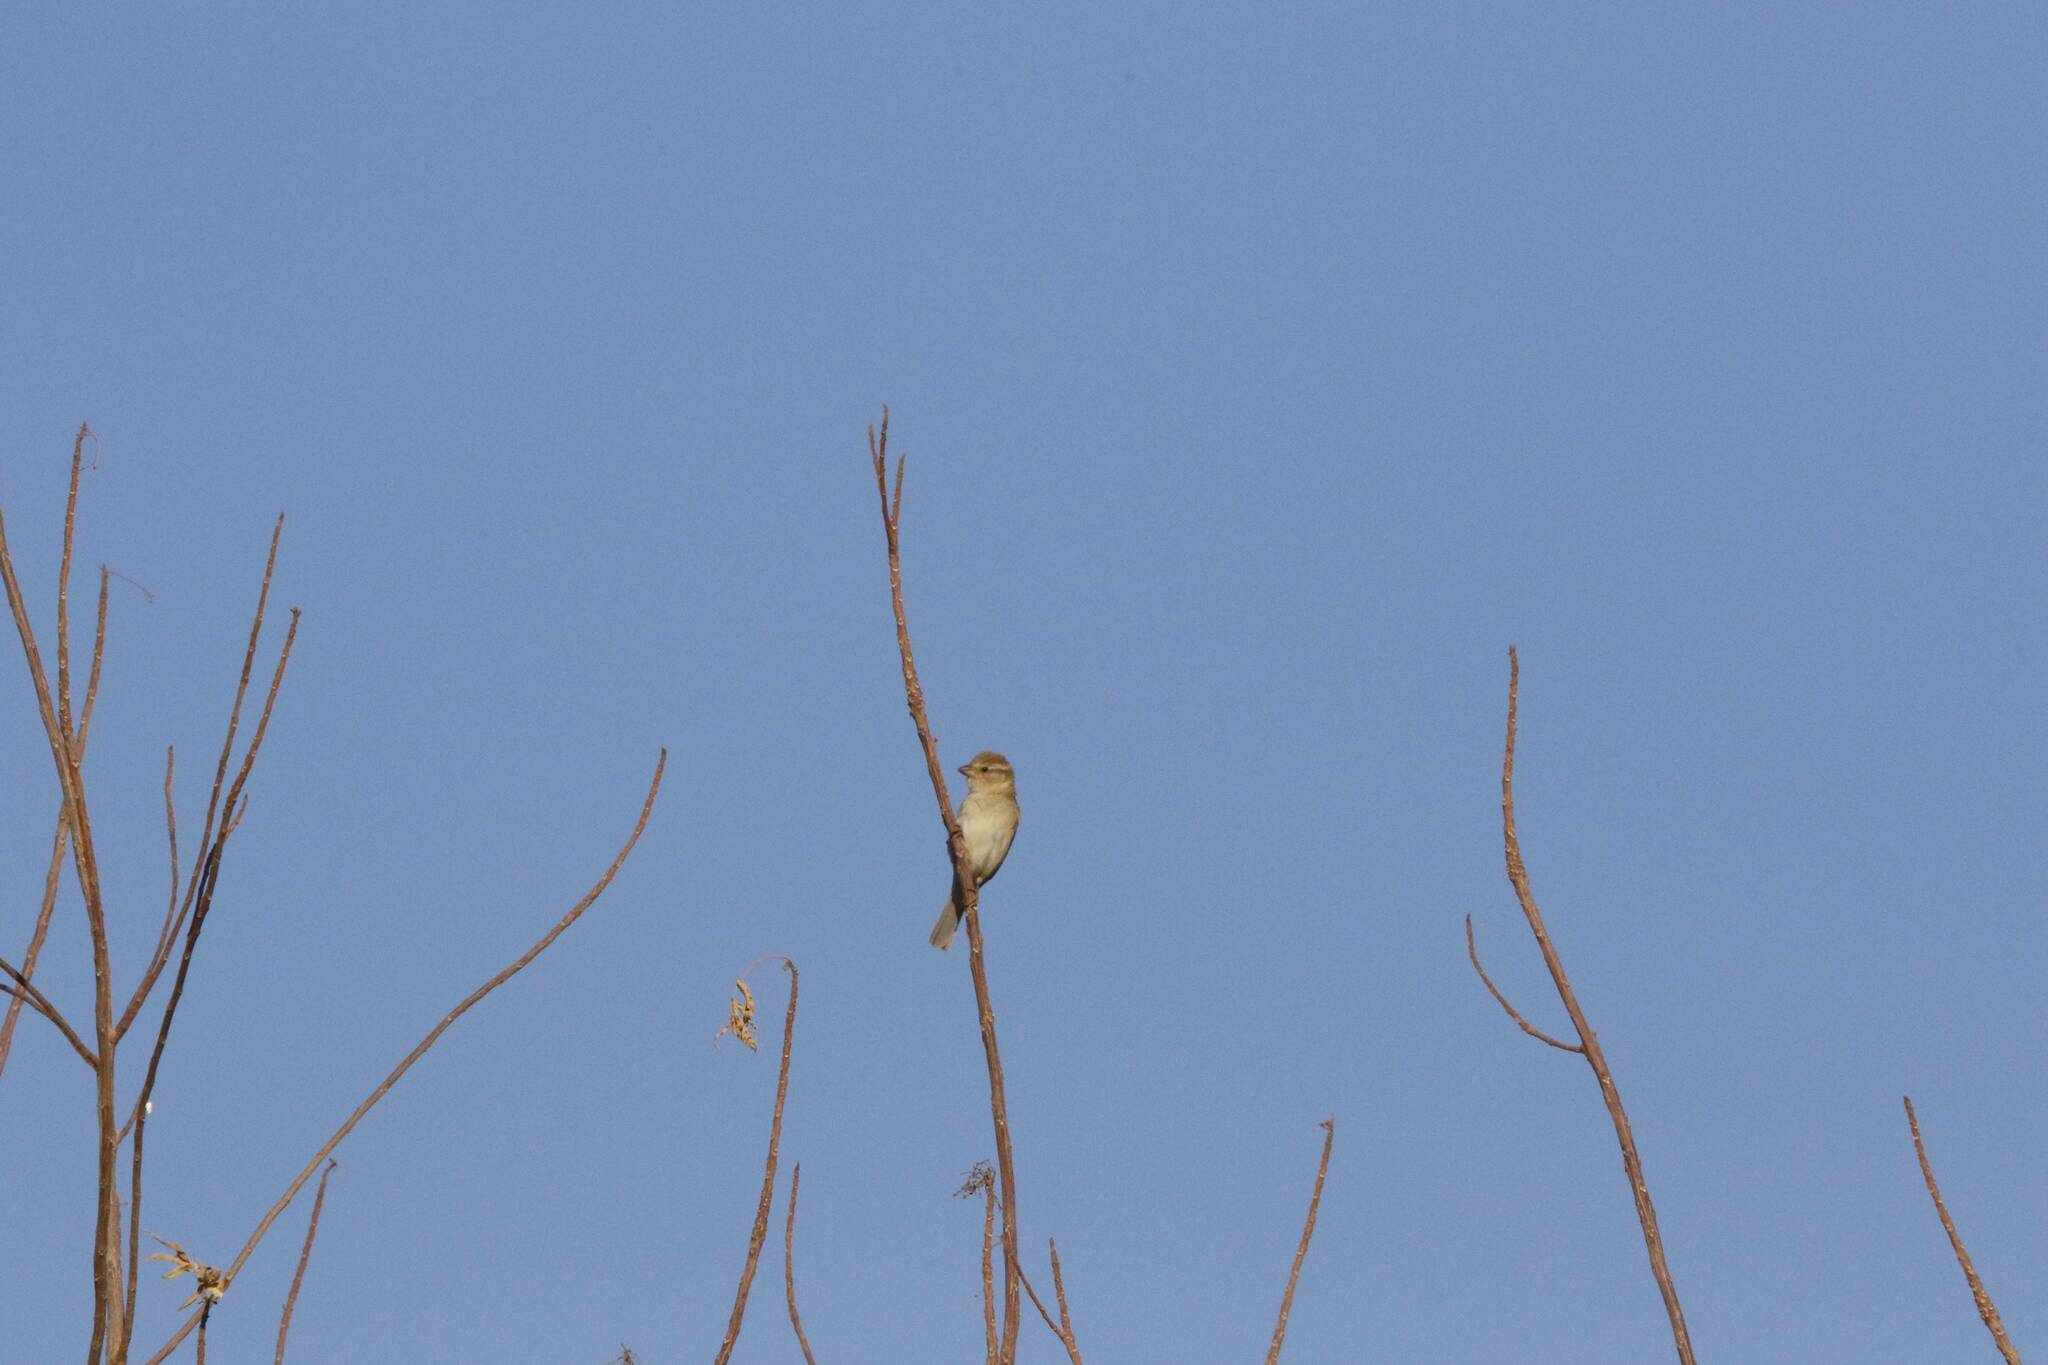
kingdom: Animalia
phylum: Chordata
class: Aves
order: Passeriformes
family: Passeridae
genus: Passer
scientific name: Passer domesticus
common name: House sparrow
